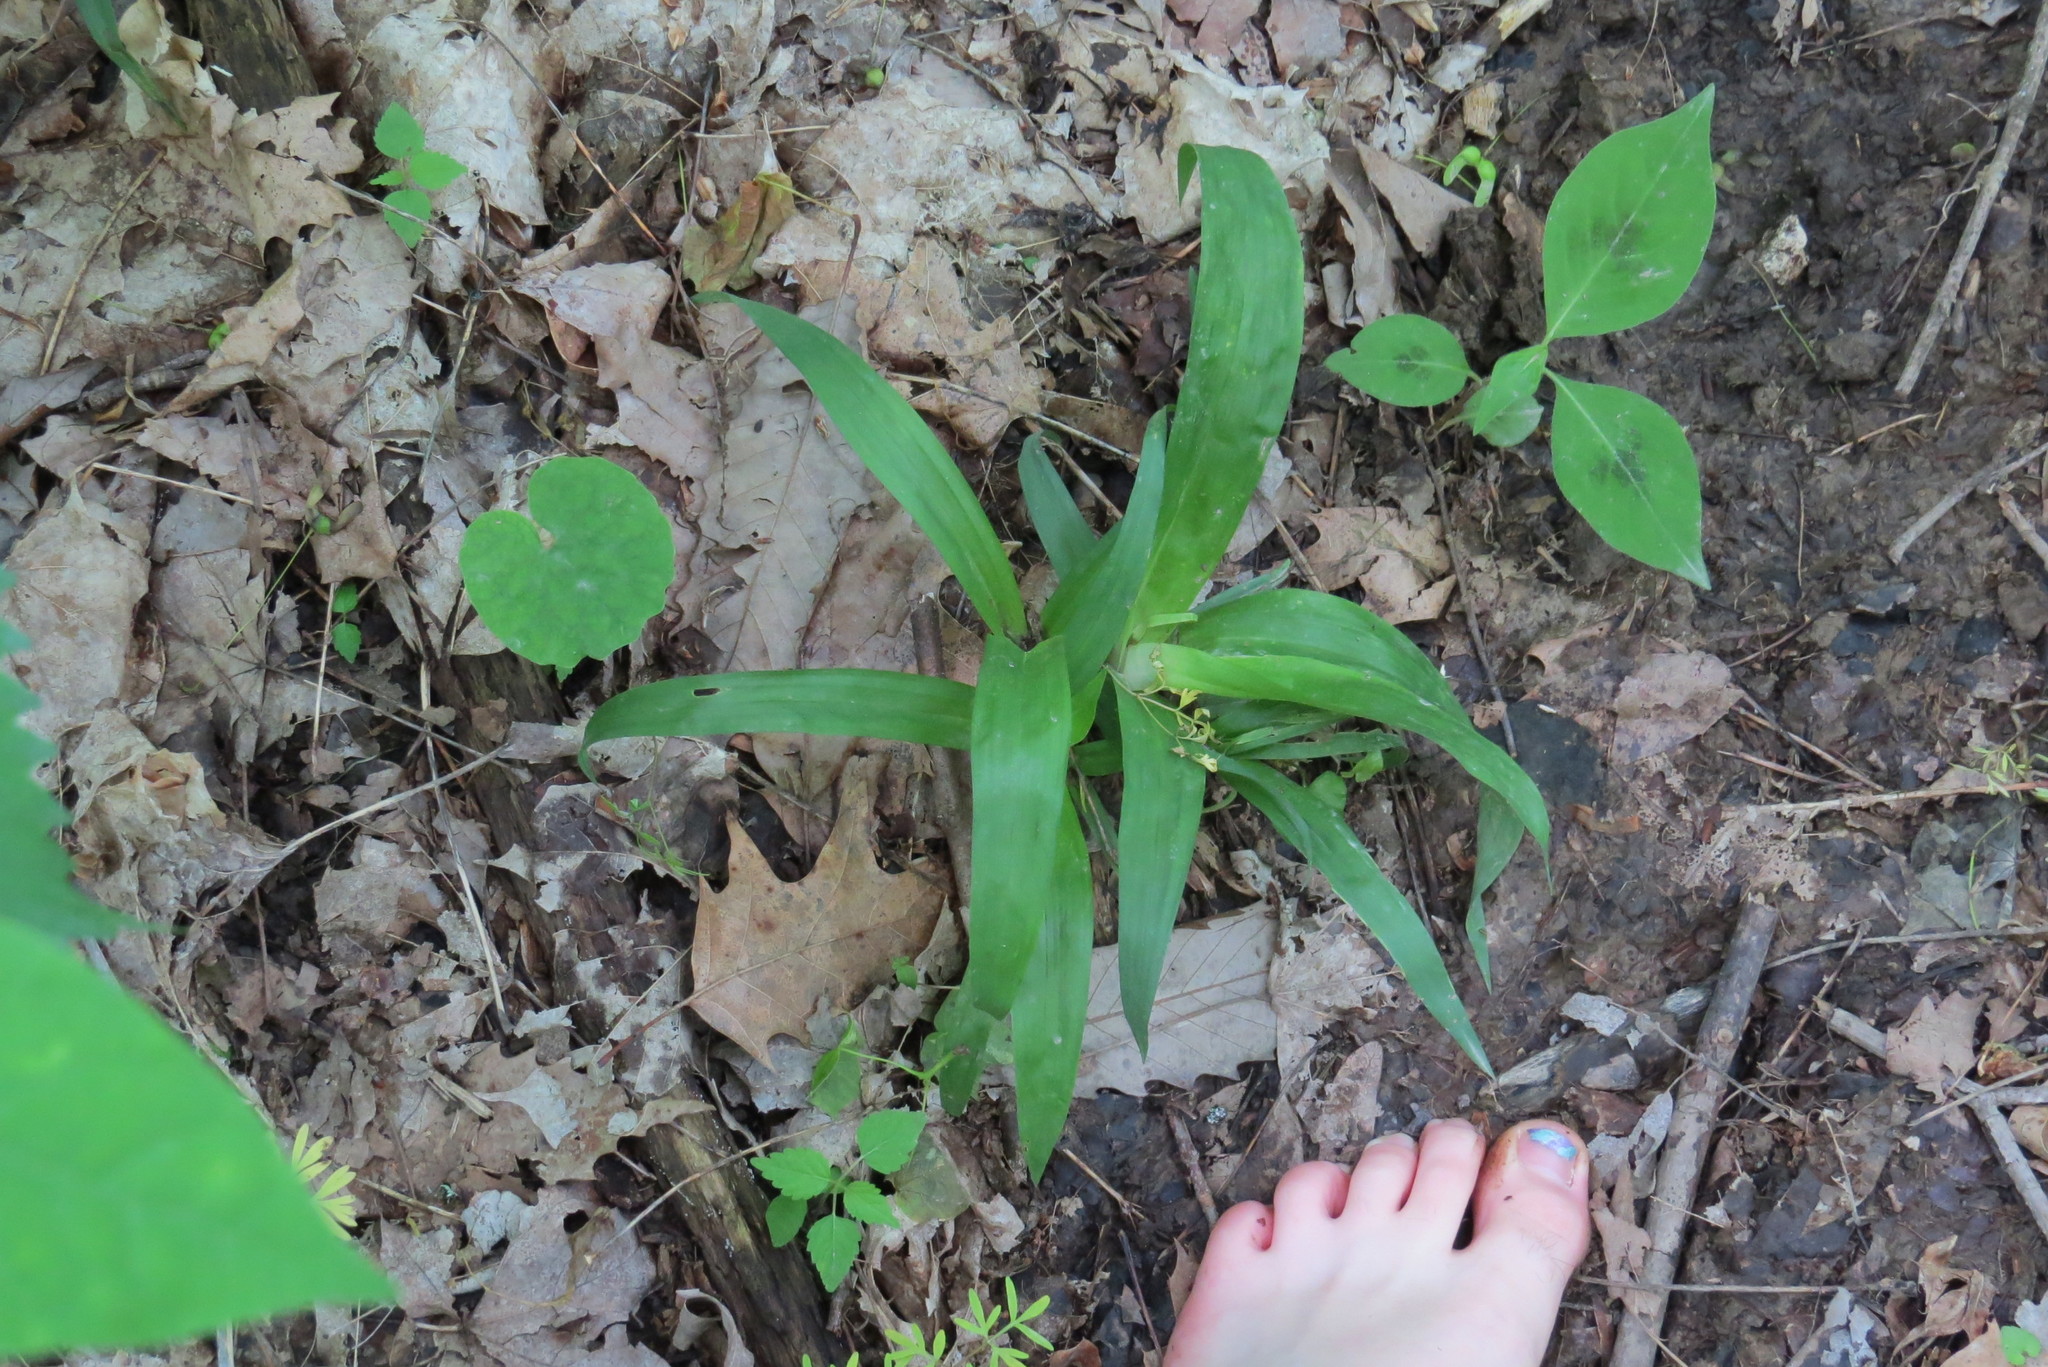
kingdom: Plantae
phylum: Tracheophyta
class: Liliopsida
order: Poales
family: Cyperaceae
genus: Carex
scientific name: Carex albursina
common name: Blunt-scale wood sedge
